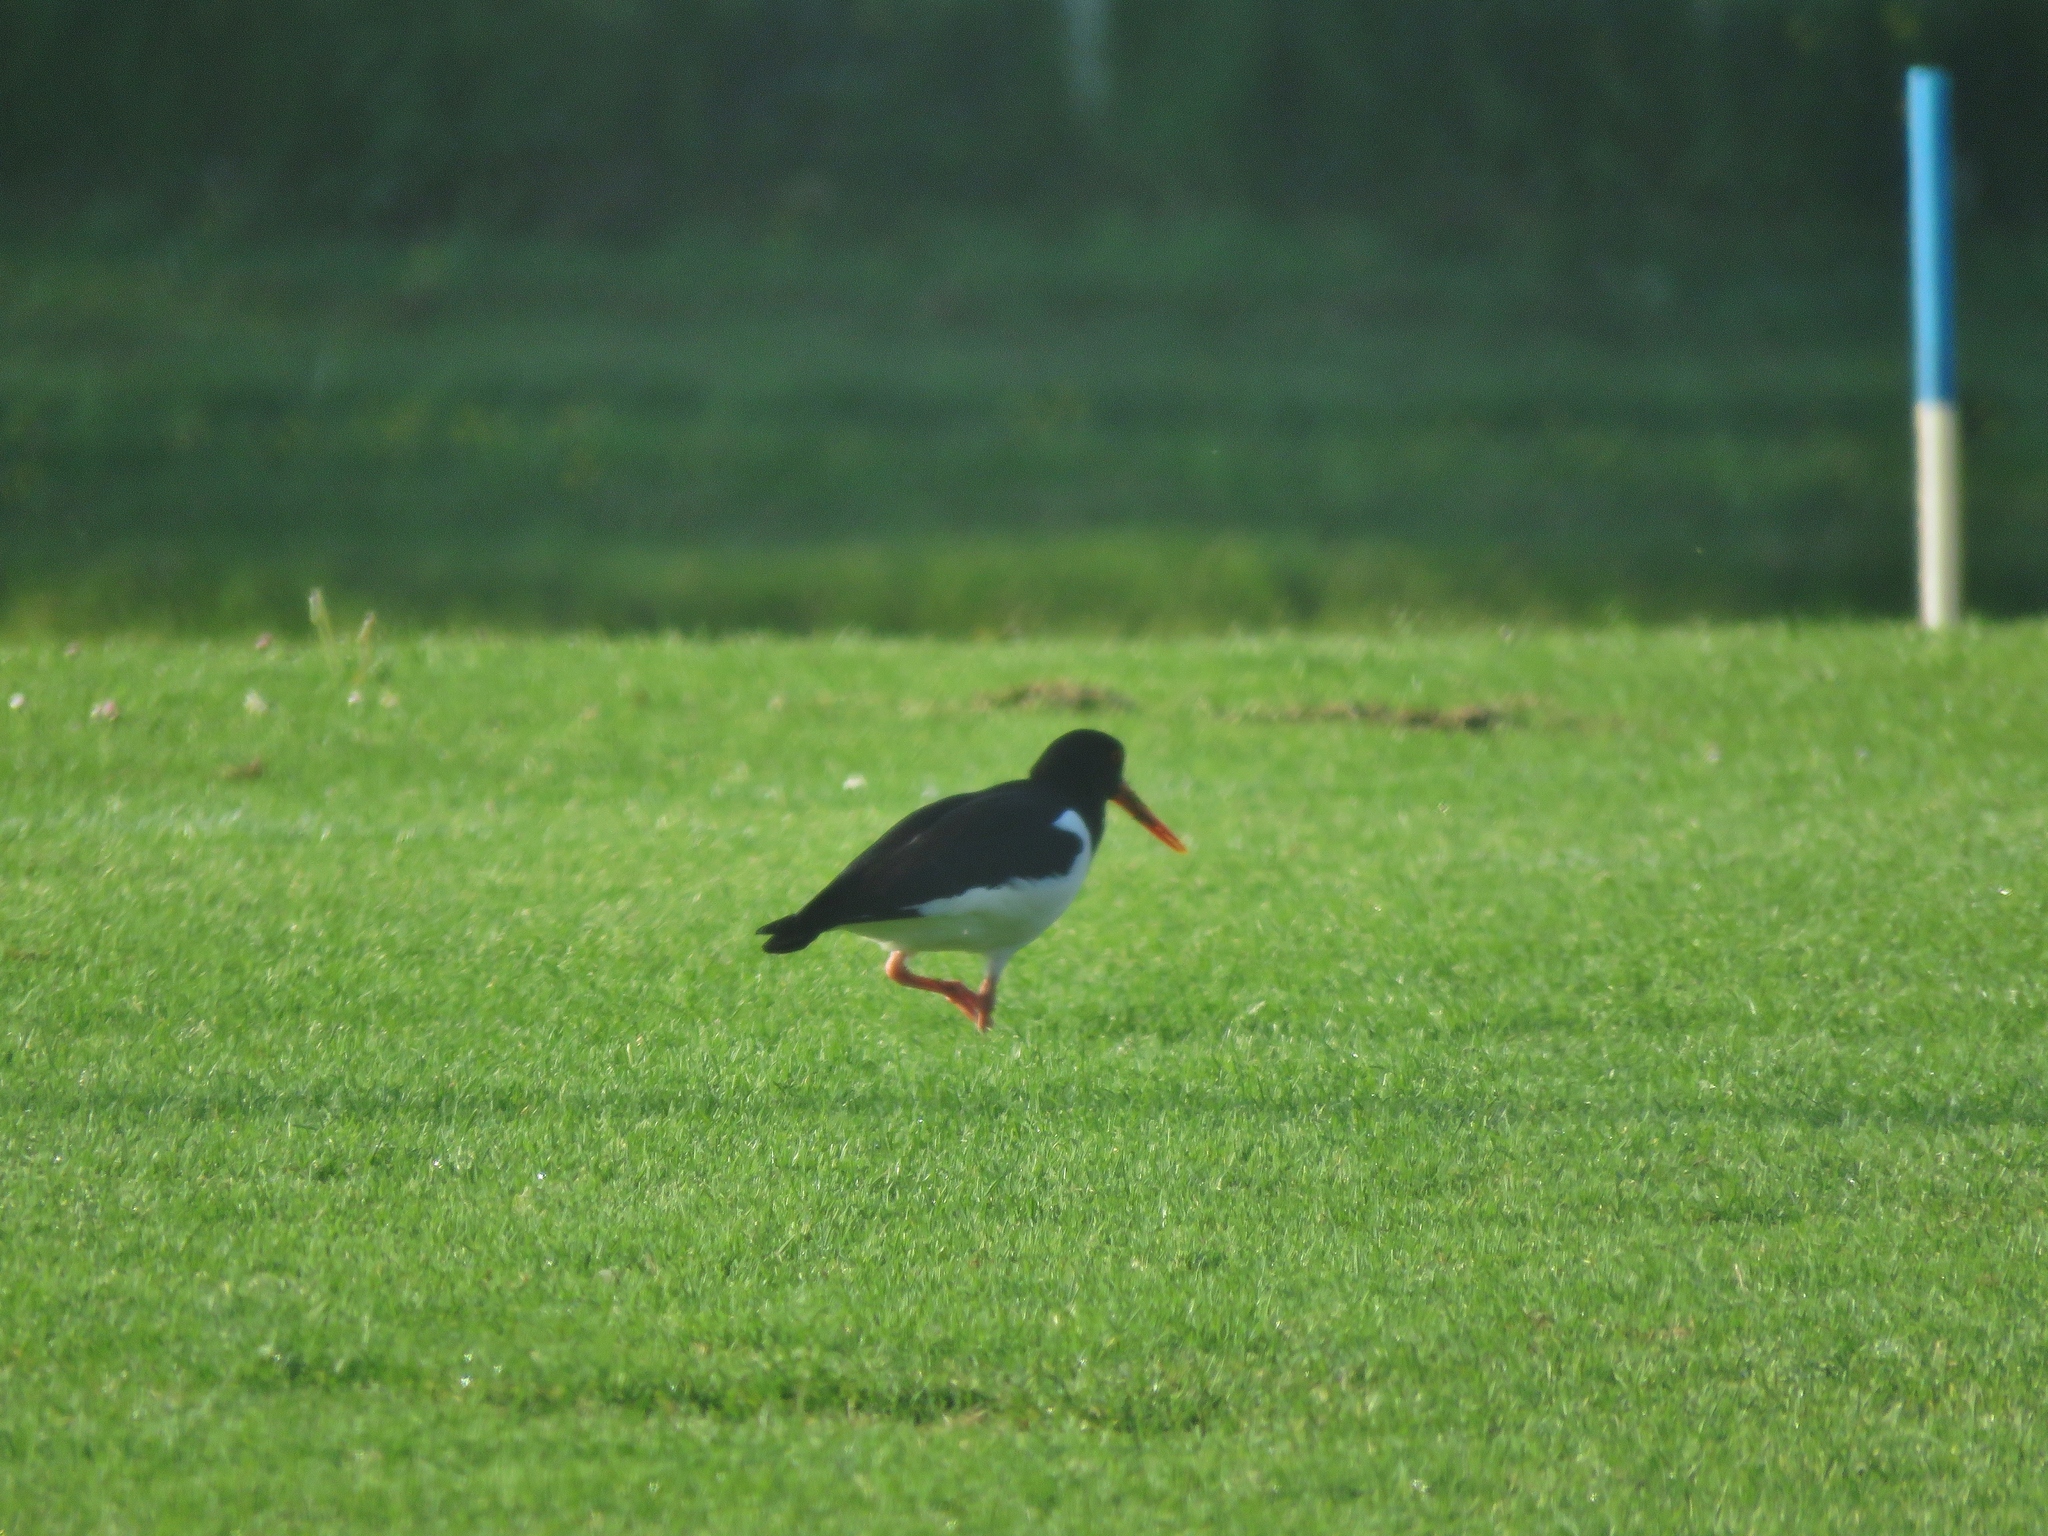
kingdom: Animalia
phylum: Chordata
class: Aves
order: Charadriiformes
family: Haematopodidae
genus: Haematopus
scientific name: Haematopus ostralegus
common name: Eurasian oystercatcher
